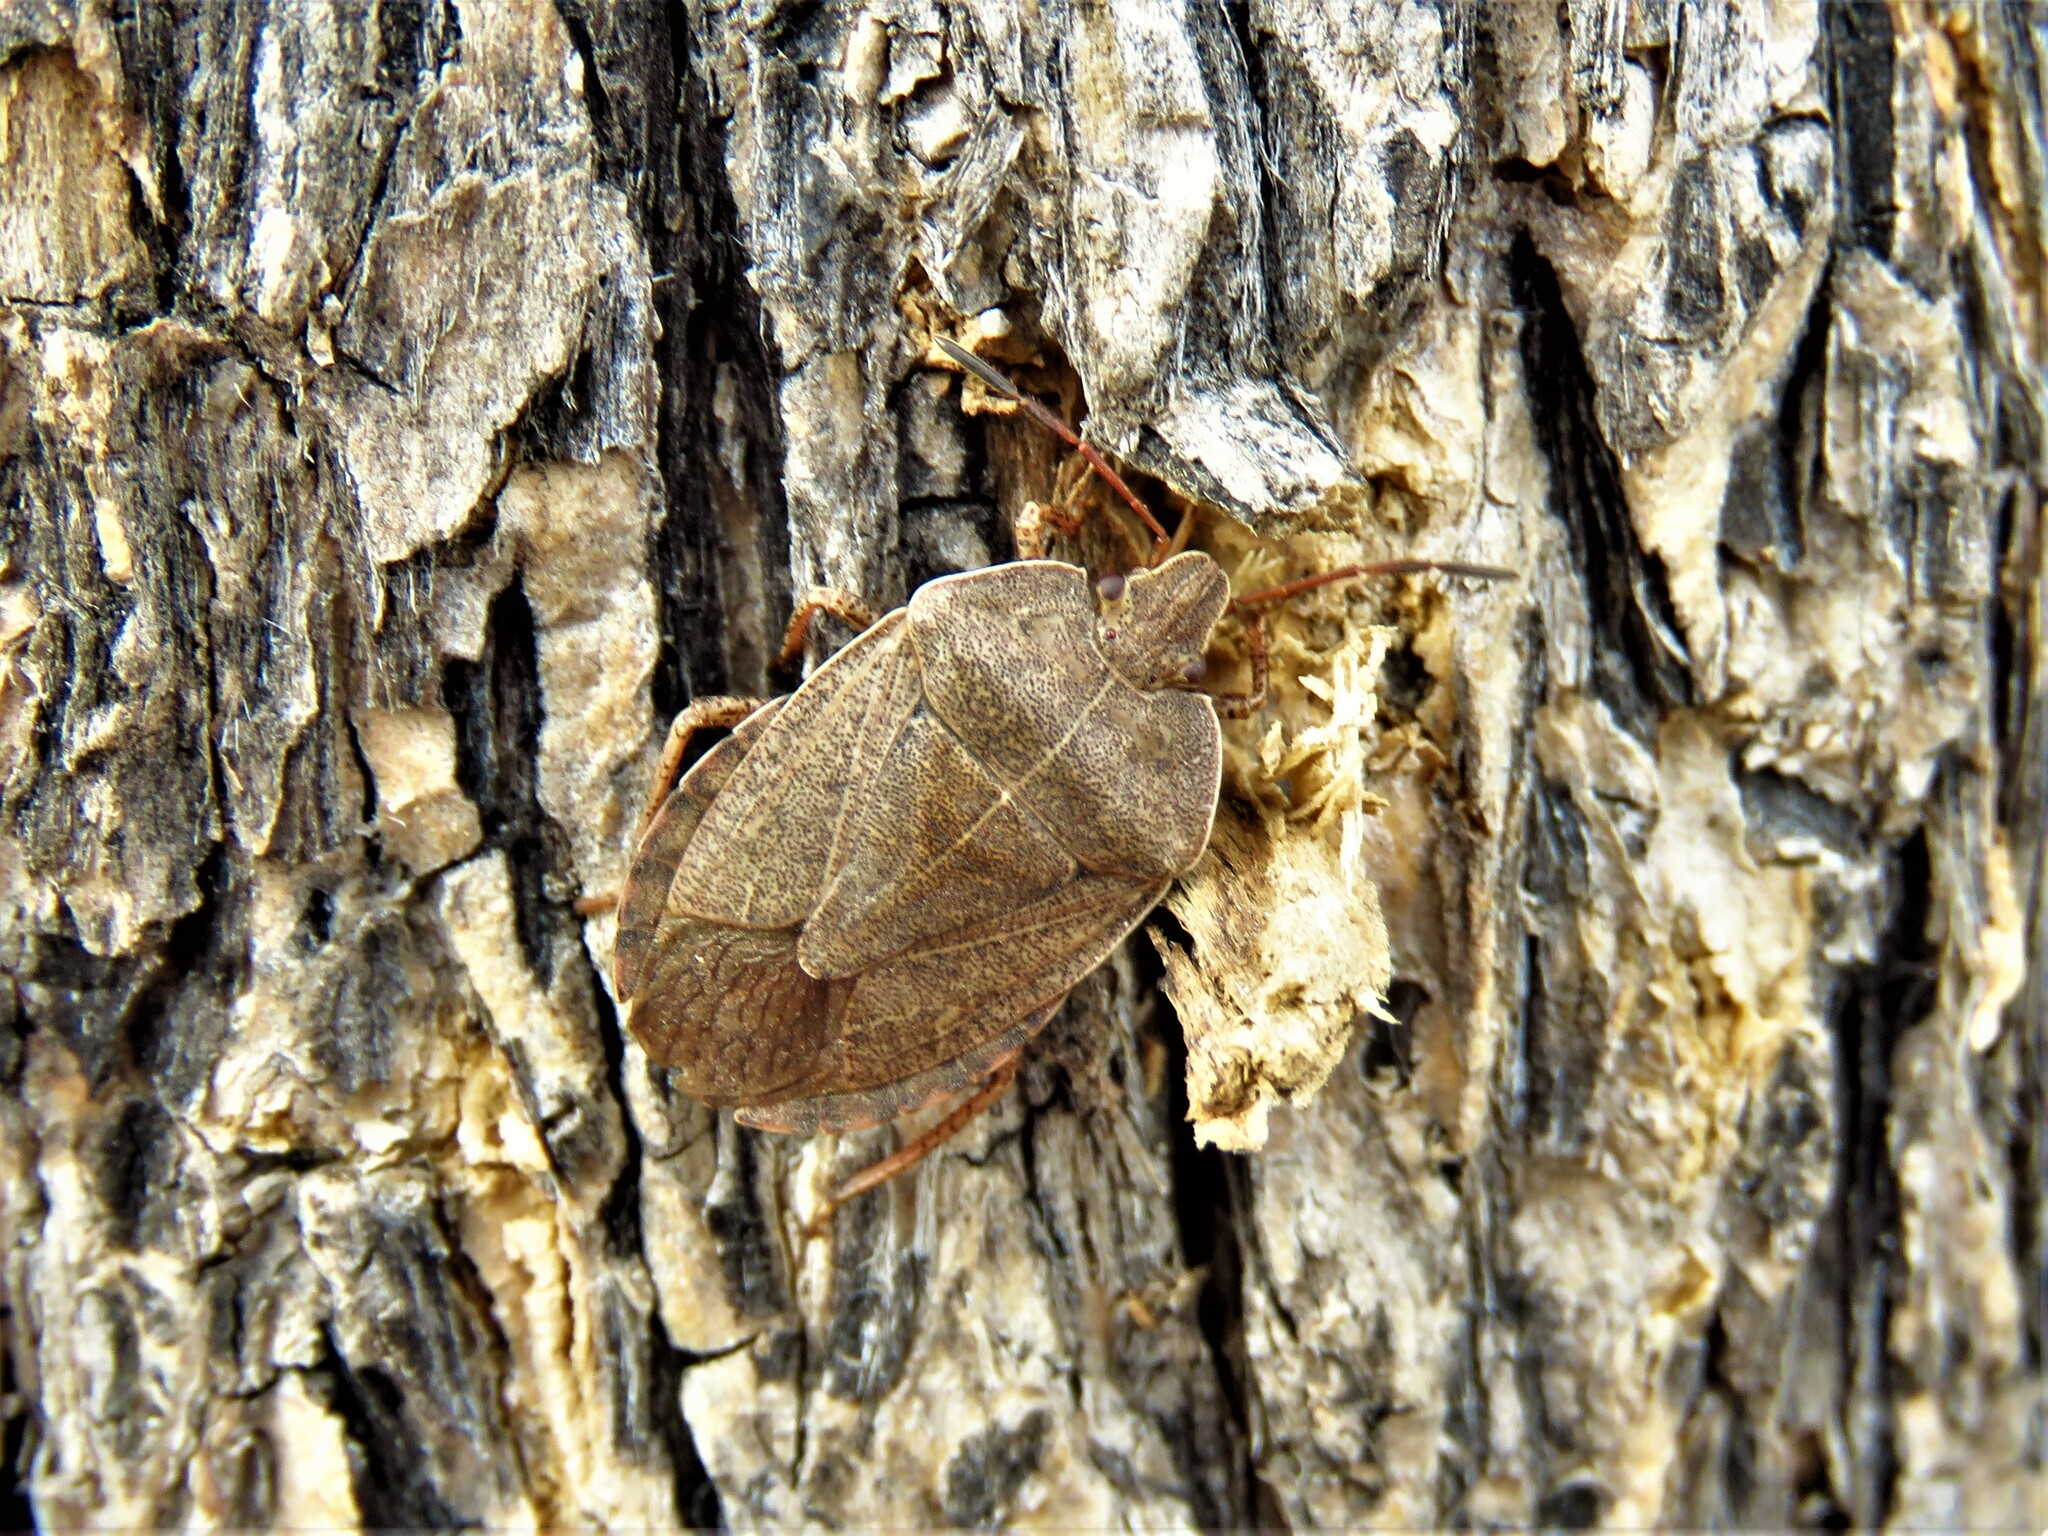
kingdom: Animalia
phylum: Arthropoda
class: Insecta
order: Hemiptera
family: Pentatomidae
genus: Menecles
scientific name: Menecles insertus
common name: Elf shoe stink bug
